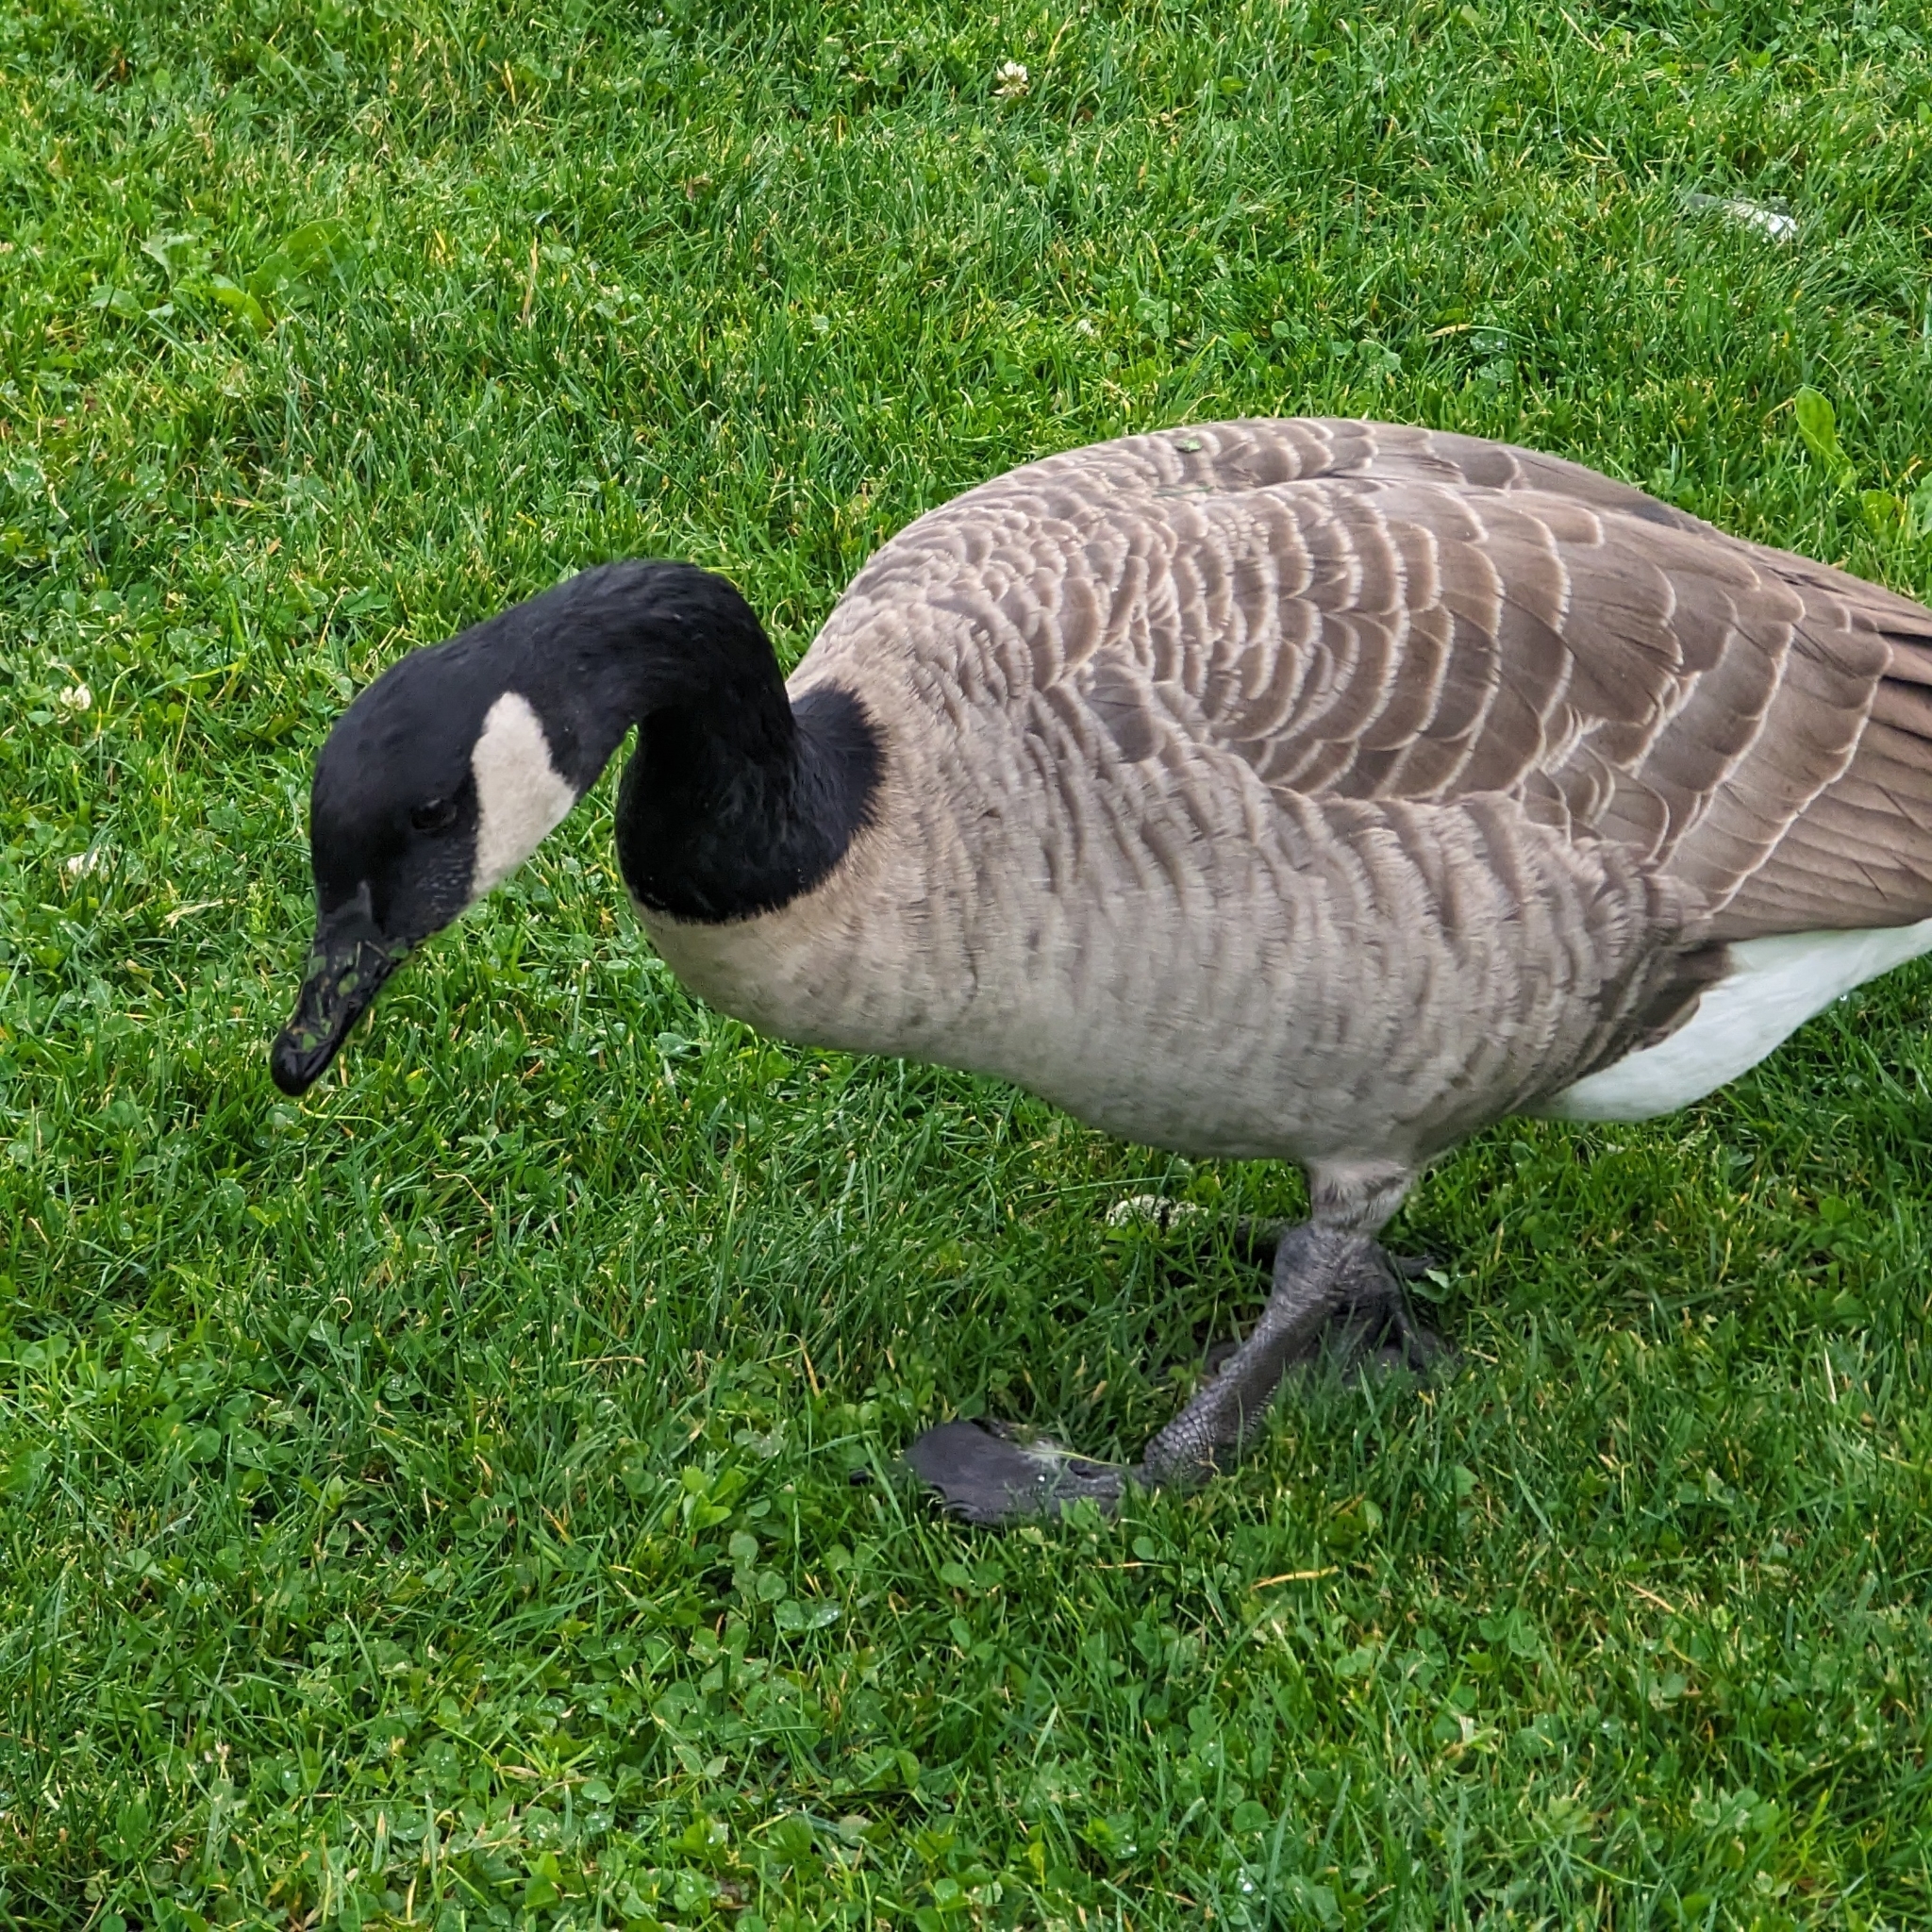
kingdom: Animalia
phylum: Chordata
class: Aves
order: Anseriformes
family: Anatidae
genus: Branta
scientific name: Branta canadensis
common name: Canada goose
